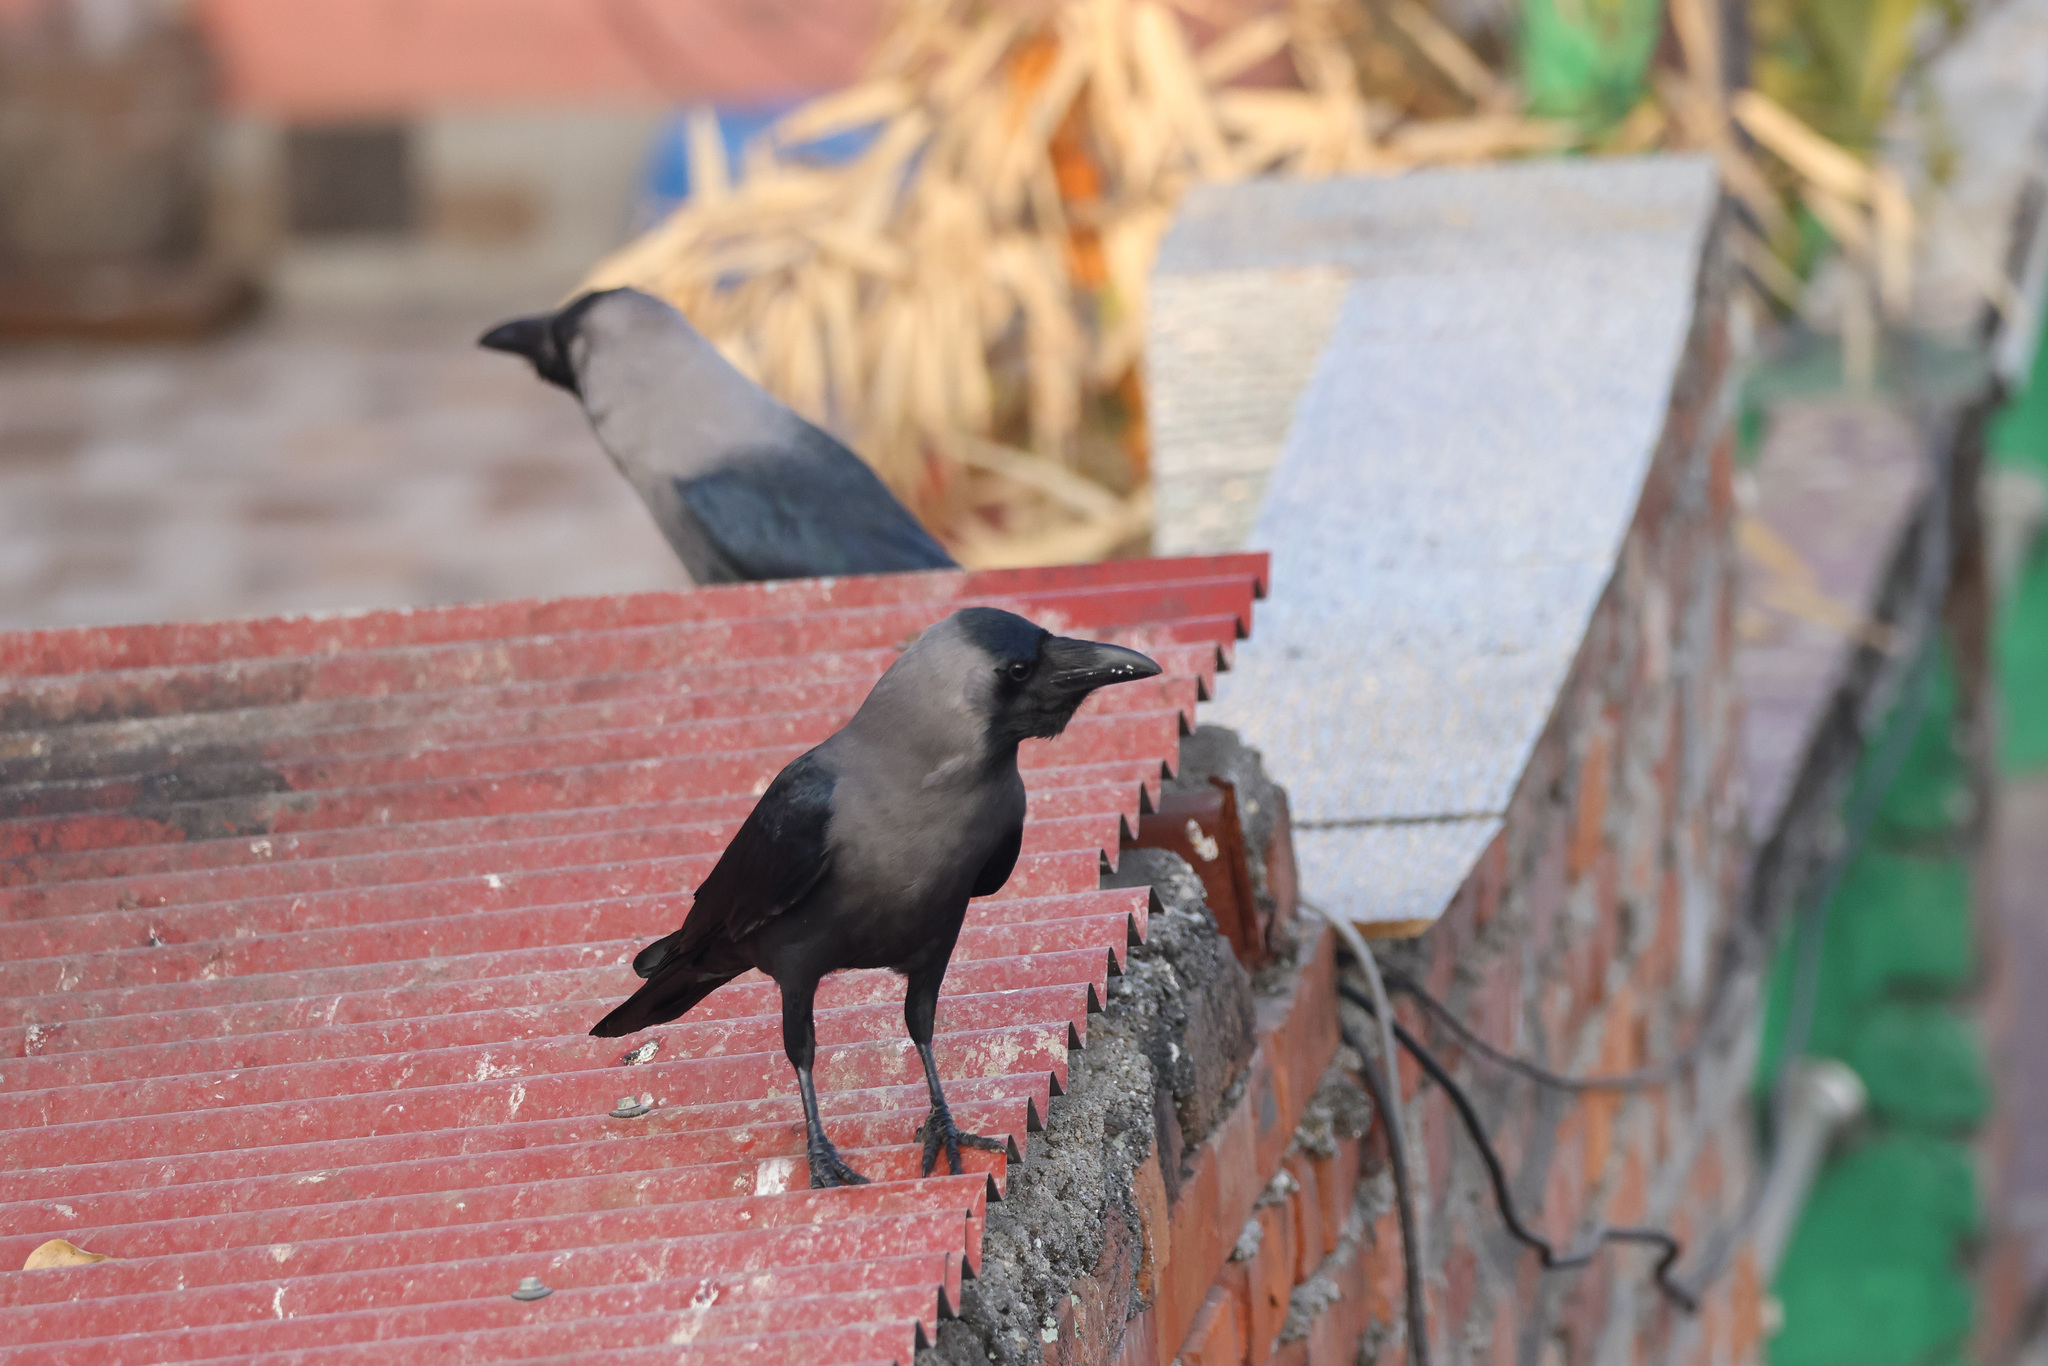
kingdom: Animalia
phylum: Chordata
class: Aves
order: Passeriformes
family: Corvidae
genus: Corvus
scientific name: Corvus splendens
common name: House crow
